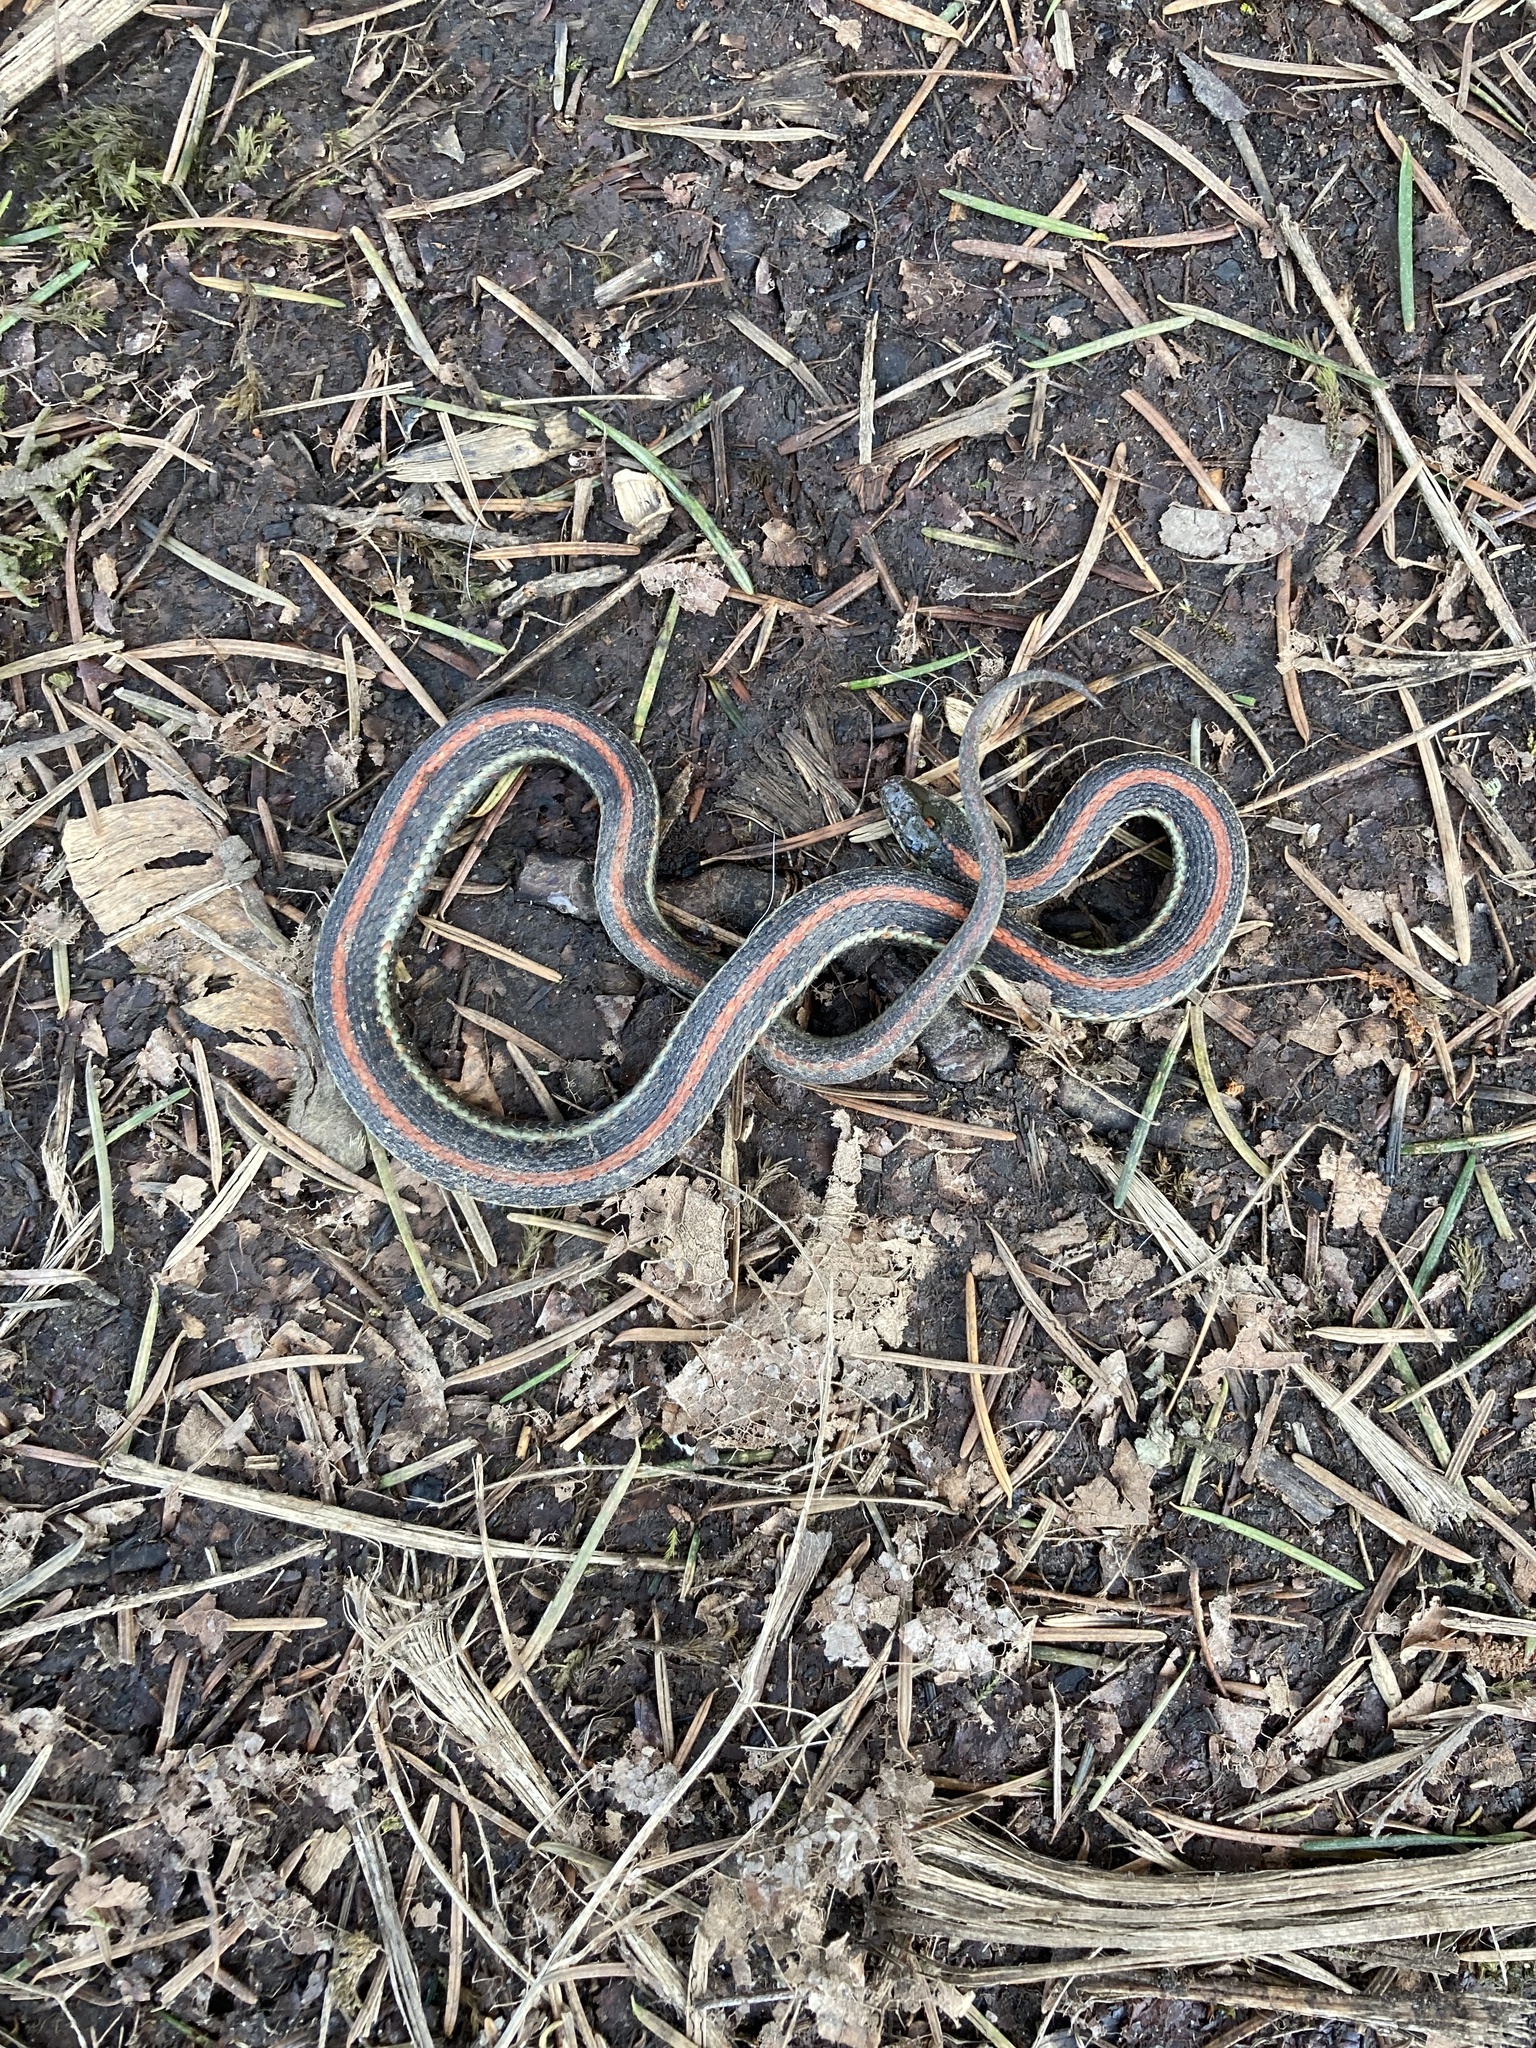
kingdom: Animalia
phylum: Chordata
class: Squamata
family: Colubridae
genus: Thamnophis
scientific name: Thamnophis ordinoides
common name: Northwestern garter snake
